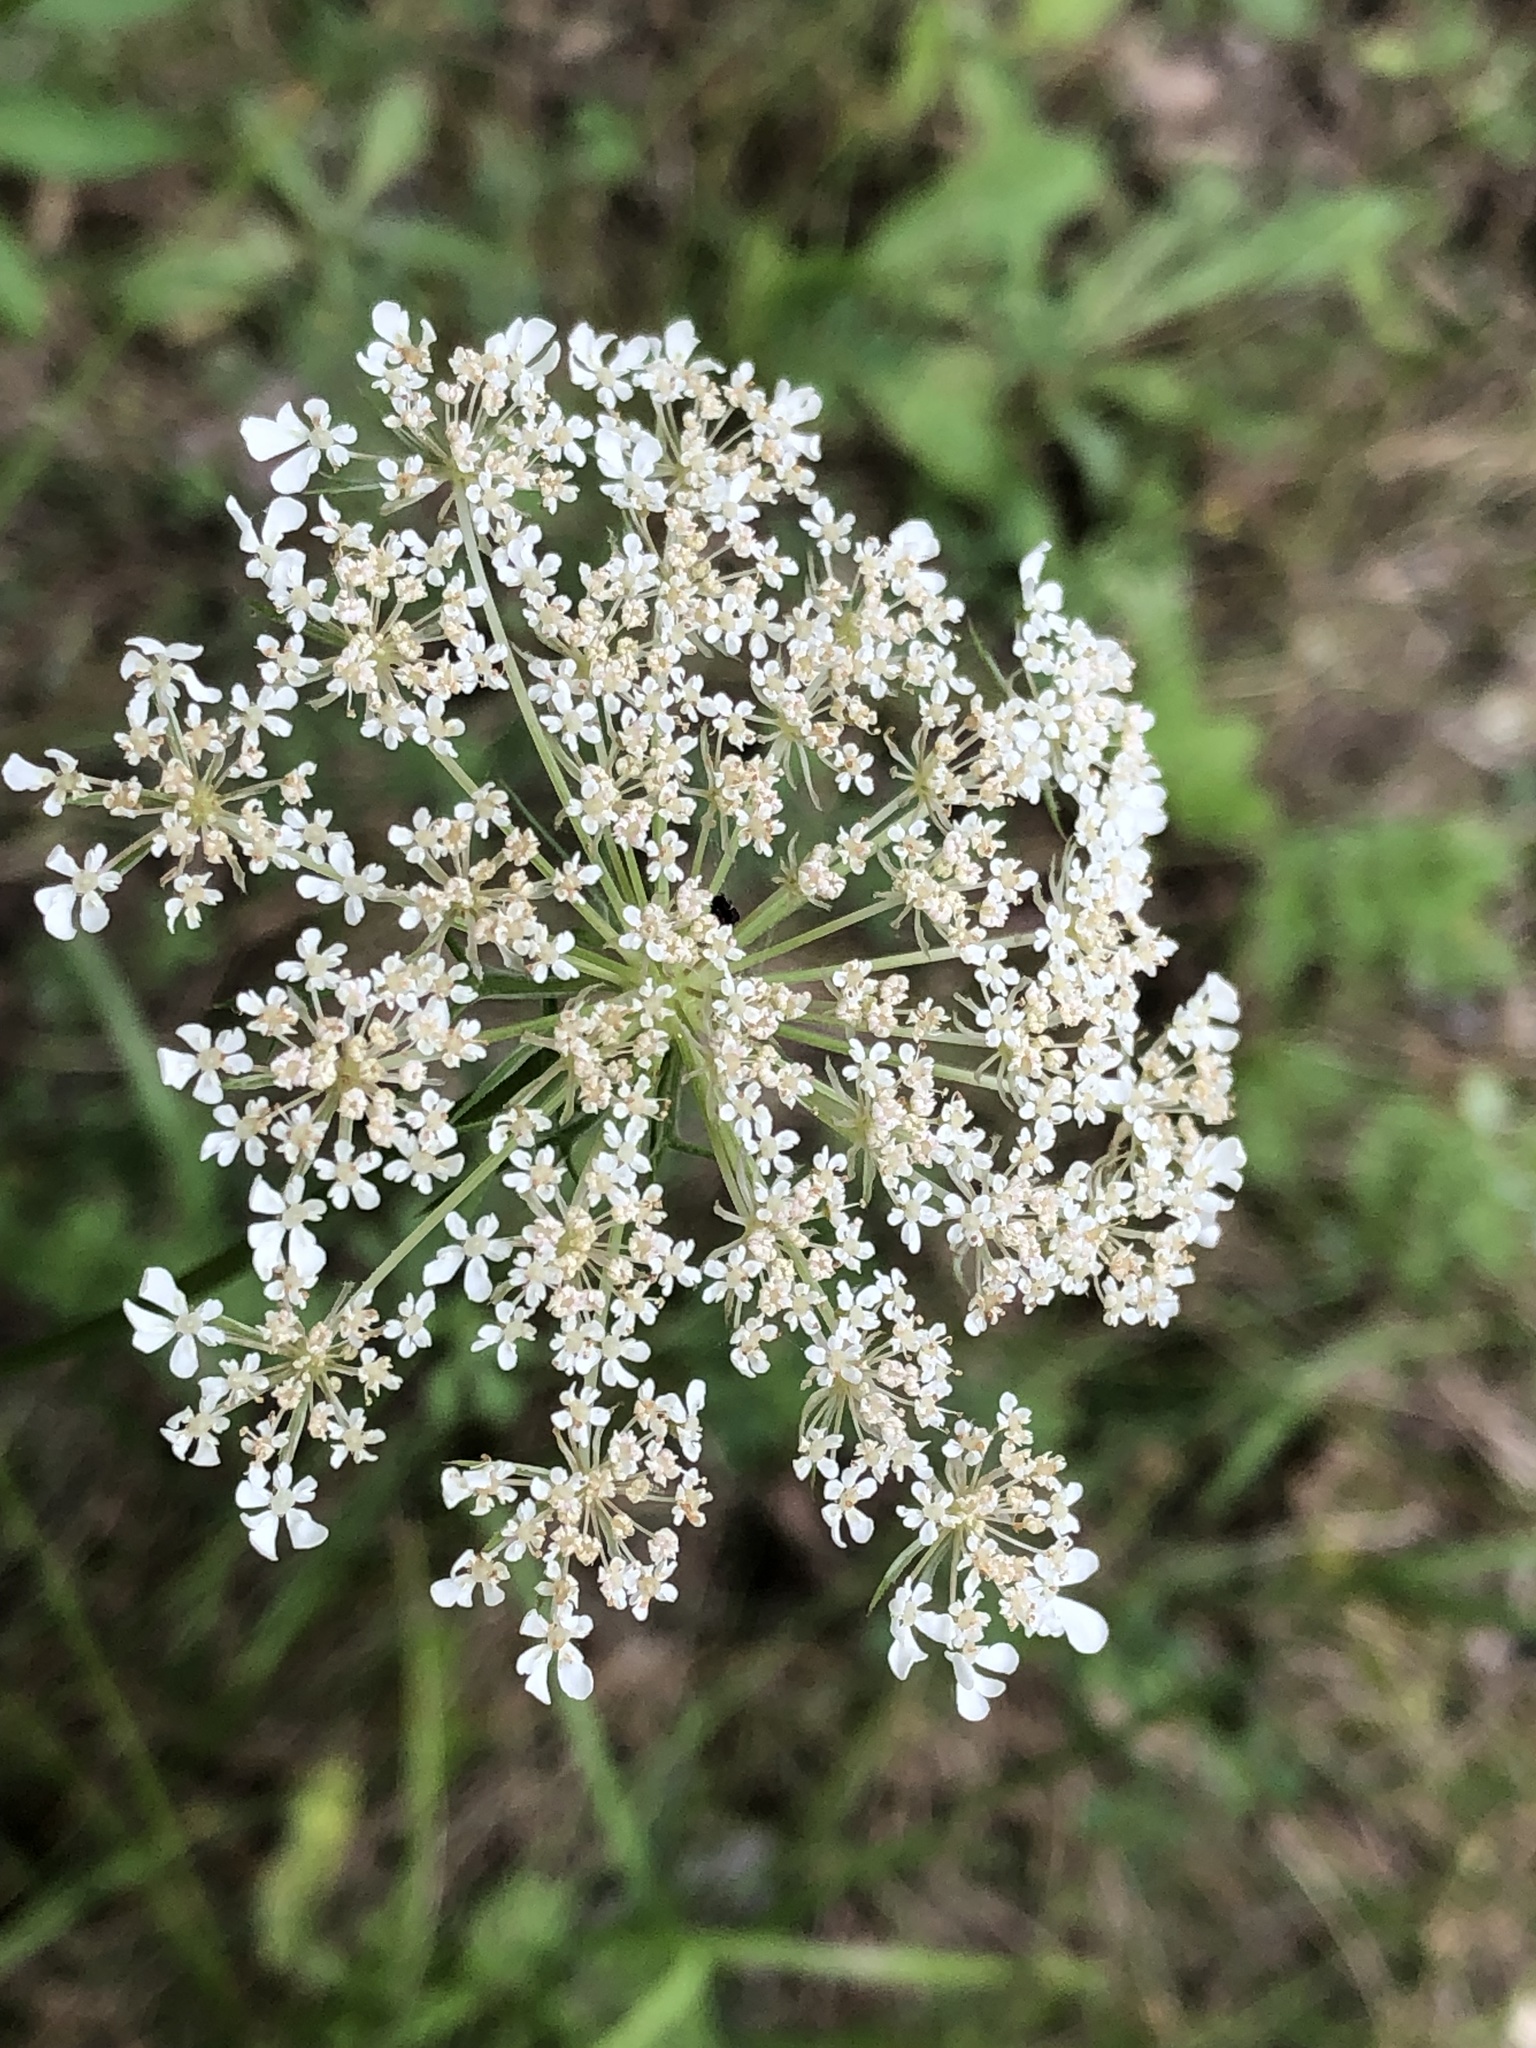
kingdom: Plantae
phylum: Tracheophyta
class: Magnoliopsida
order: Apiales
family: Apiaceae
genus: Daucus
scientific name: Daucus carota
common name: Wild carrot
